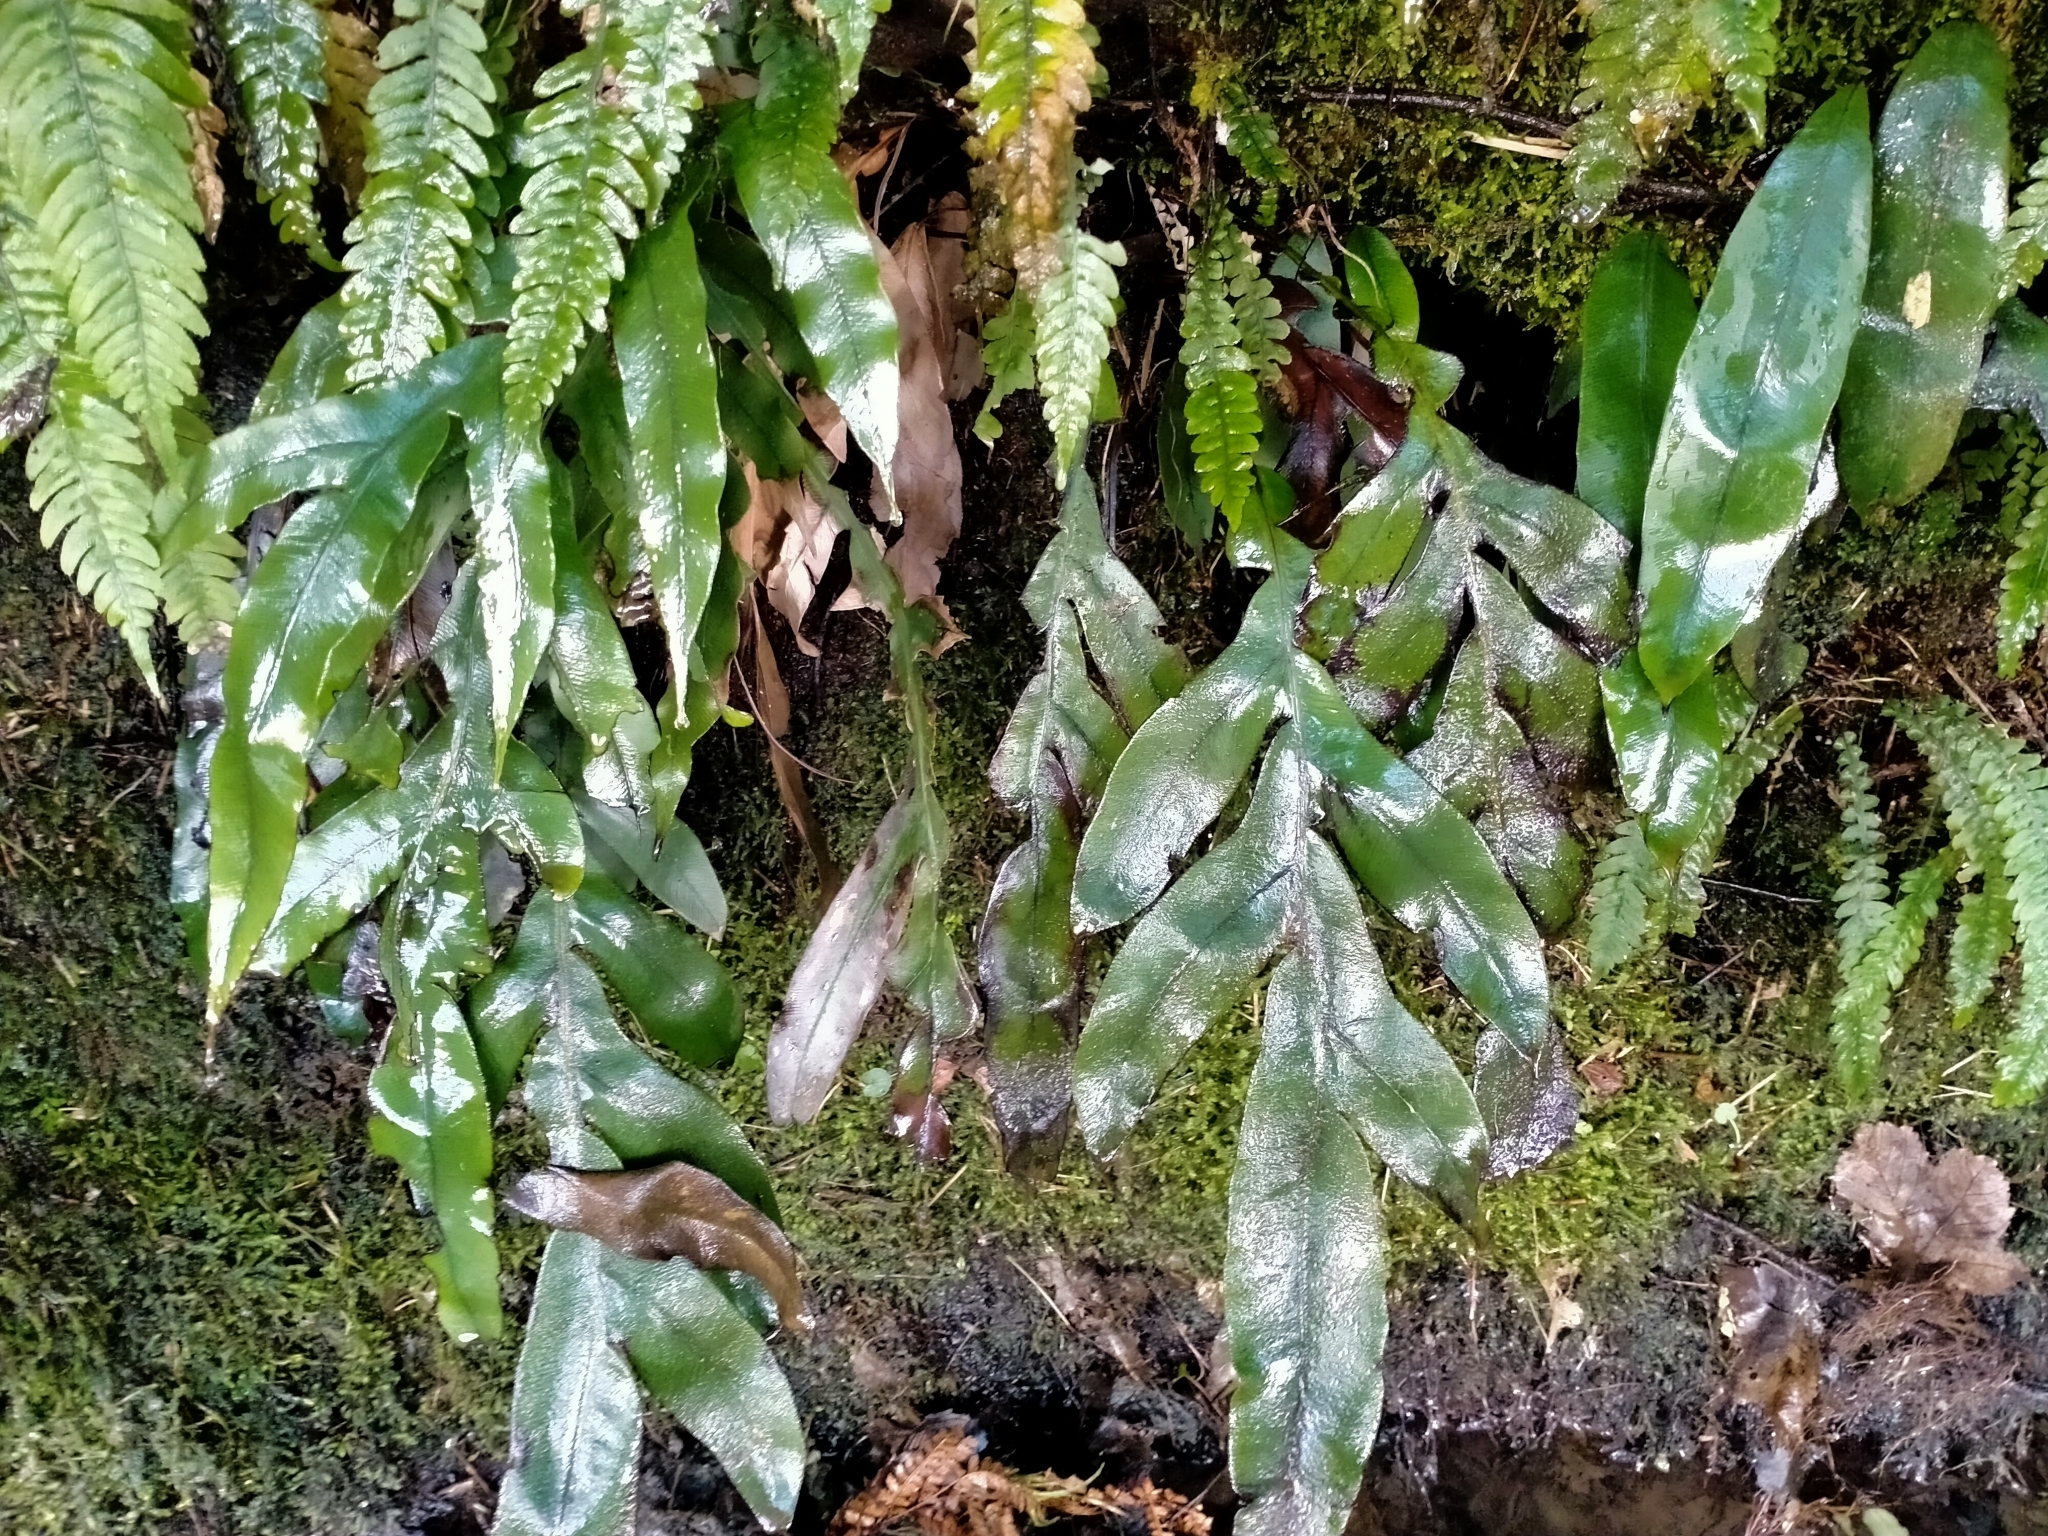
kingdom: Plantae
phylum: Tracheophyta
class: Polypodiopsida
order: Polypodiales
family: Blechnaceae
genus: Austroblechnum
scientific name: Austroblechnum colensoi
